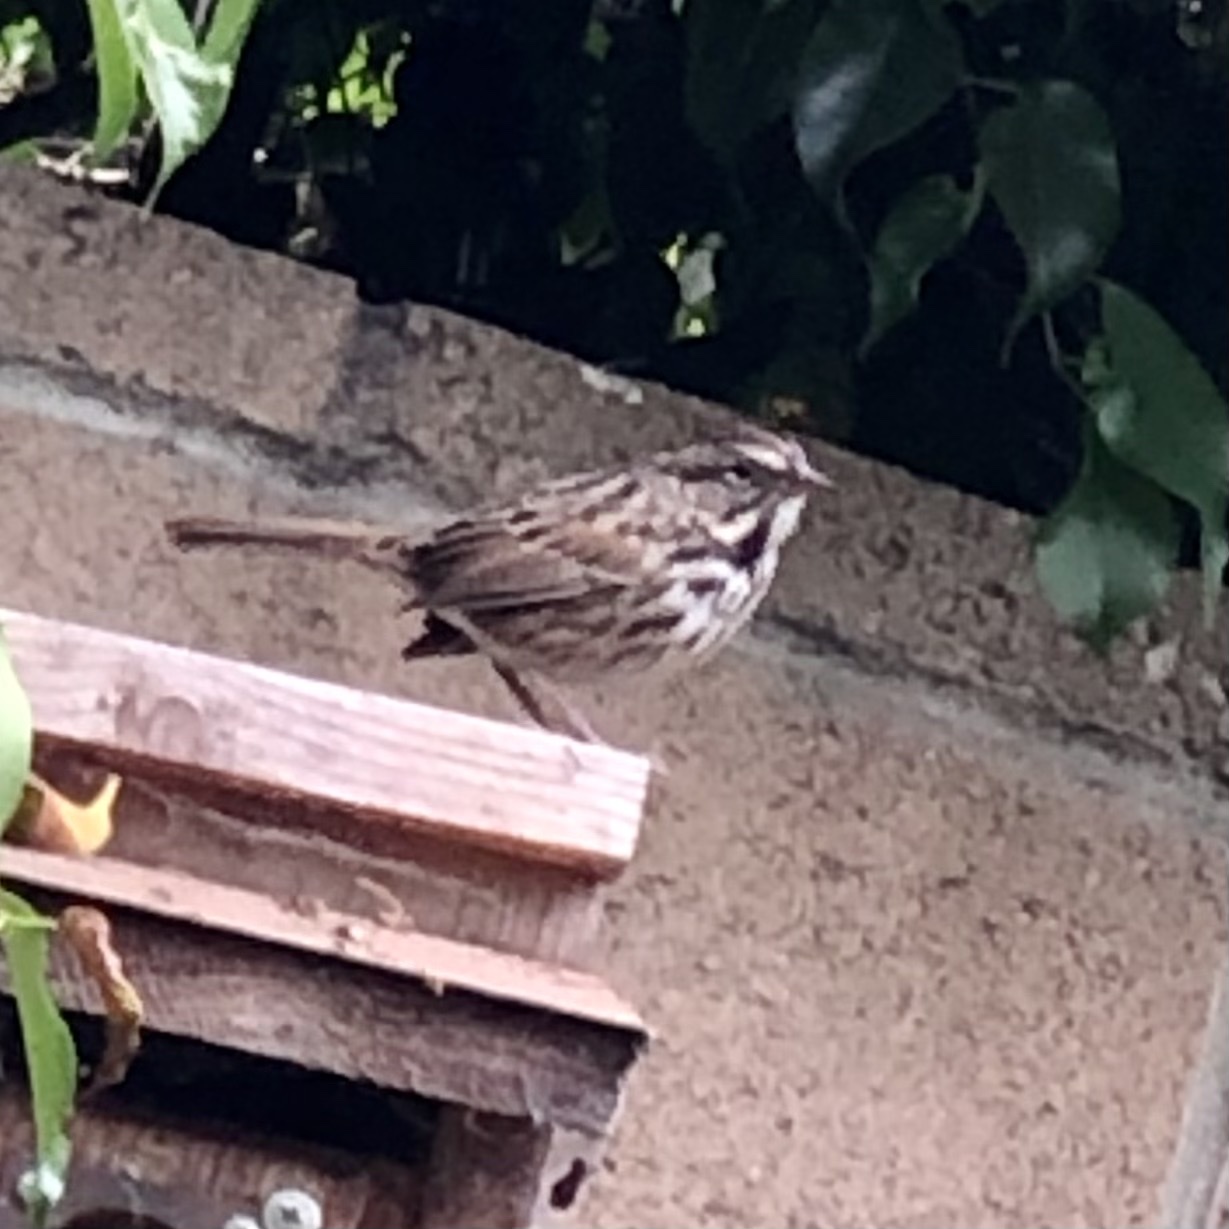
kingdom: Animalia
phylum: Chordata
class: Aves
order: Passeriformes
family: Passerellidae
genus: Melospiza
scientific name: Melospiza melodia
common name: Song sparrow
